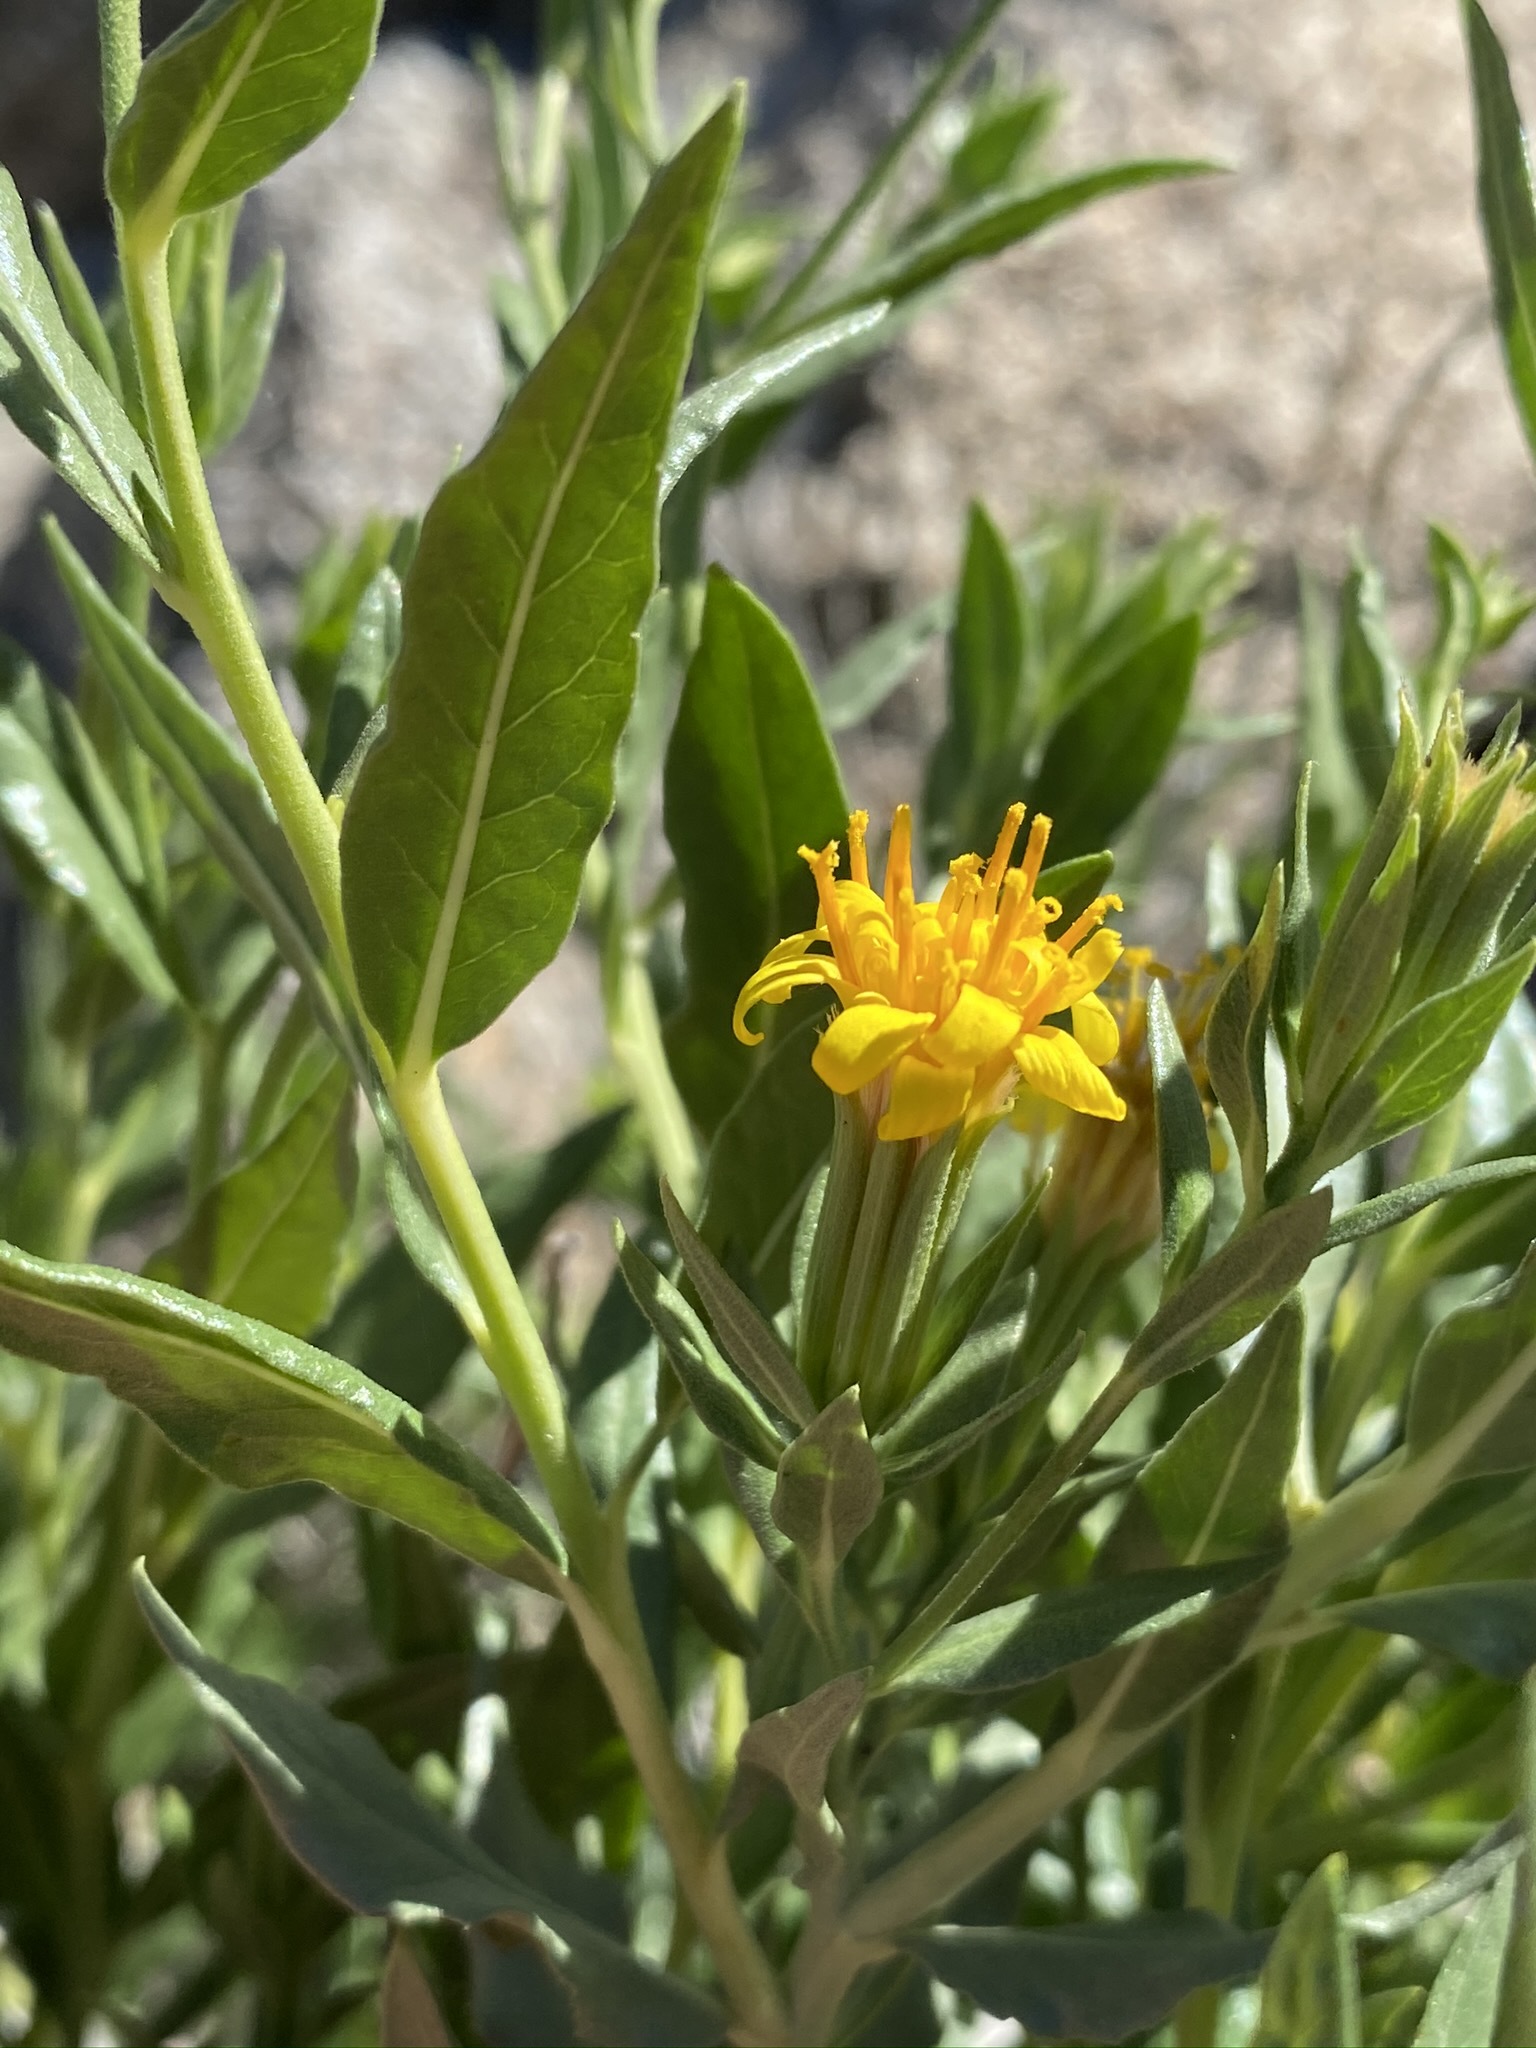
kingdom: Plantae
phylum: Tracheophyta
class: Magnoliopsida
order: Asterales
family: Asteraceae
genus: Trixis
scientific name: Trixis californica
